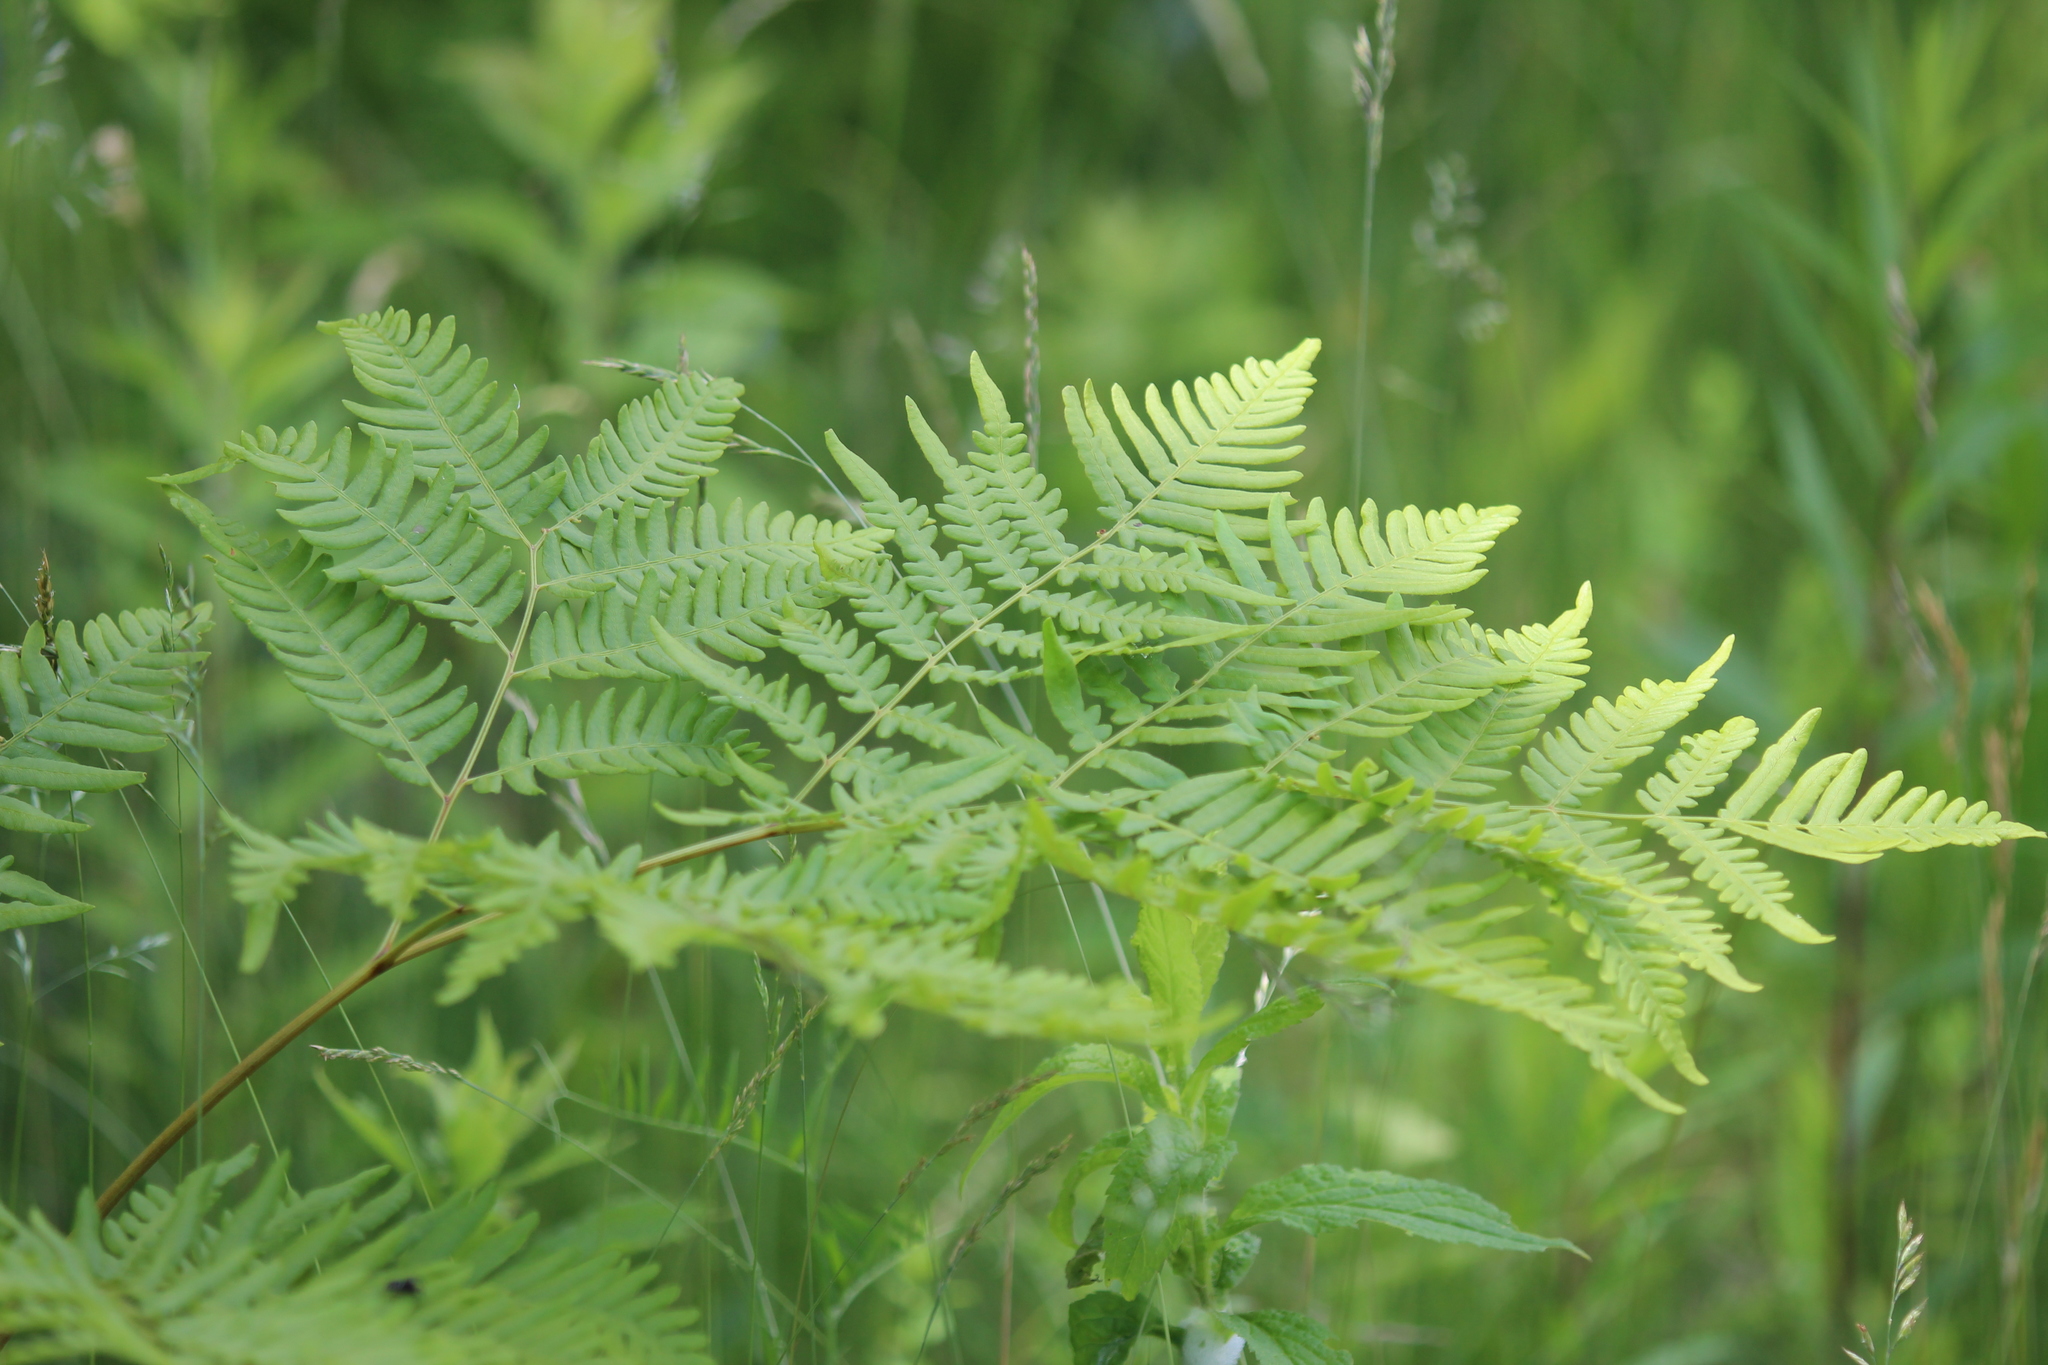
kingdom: Plantae
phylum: Tracheophyta
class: Polypodiopsida
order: Polypodiales
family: Dennstaedtiaceae
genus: Pteridium
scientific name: Pteridium aquilinum
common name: Bracken
